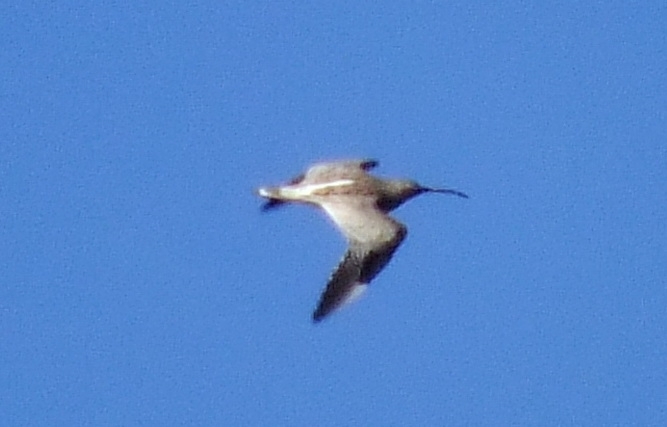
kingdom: Animalia
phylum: Chordata
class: Aves
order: Charadriiformes
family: Scolopacidae
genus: Numenius
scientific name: Numenius arquata
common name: Eurasian curlew
